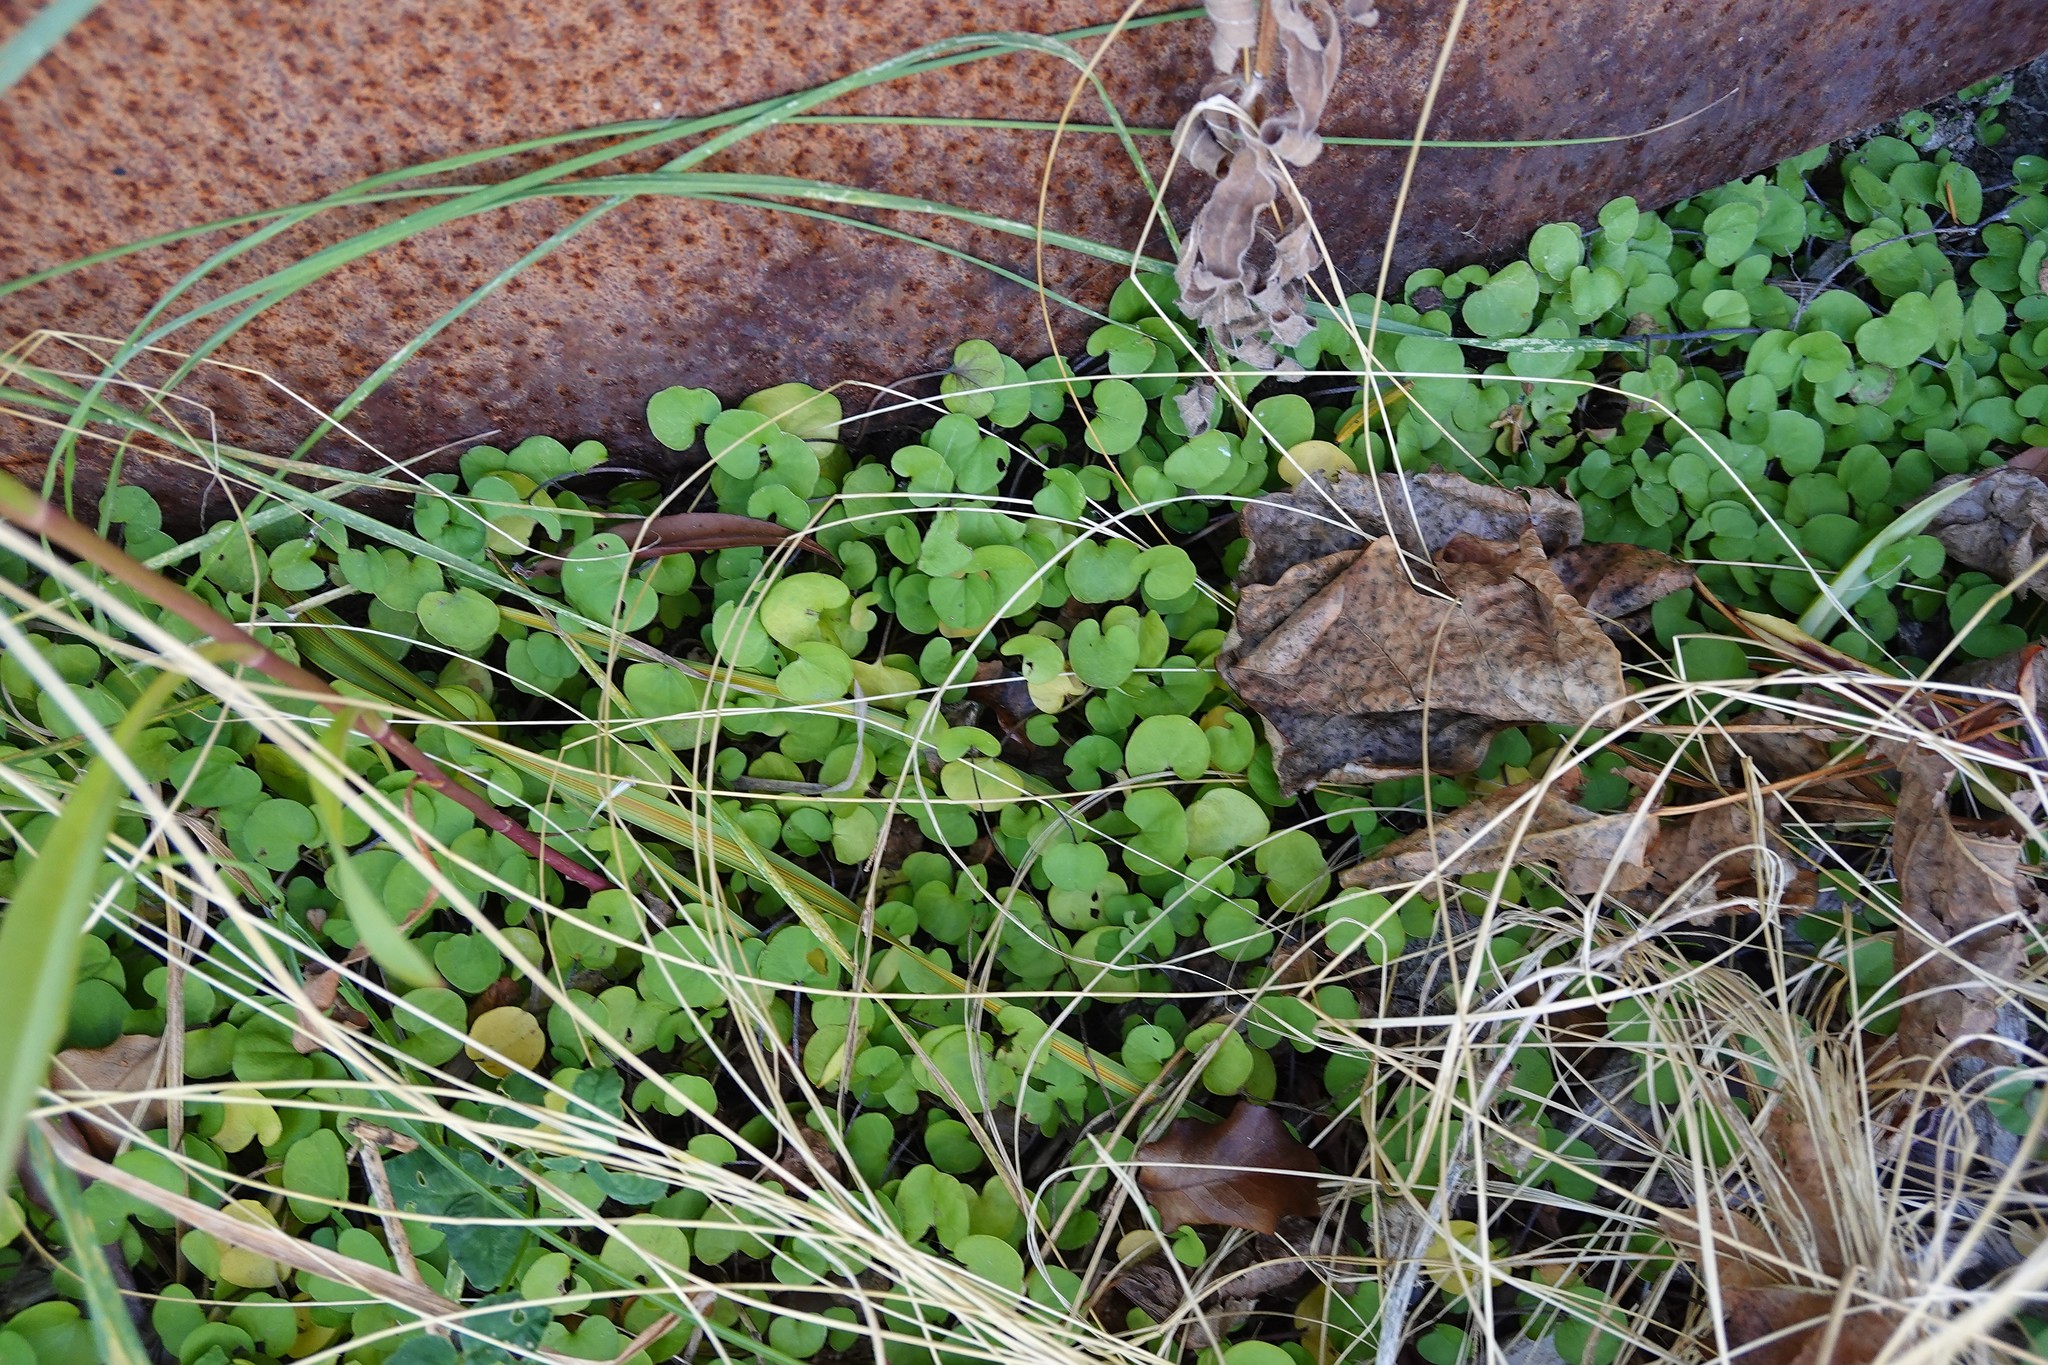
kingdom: Plantae
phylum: Tracheophyta
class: Magnoliopsida
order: Solanales
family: Convolvulaceae
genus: Dichondra
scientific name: Dichondra micrantha
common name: Kidneyweed
